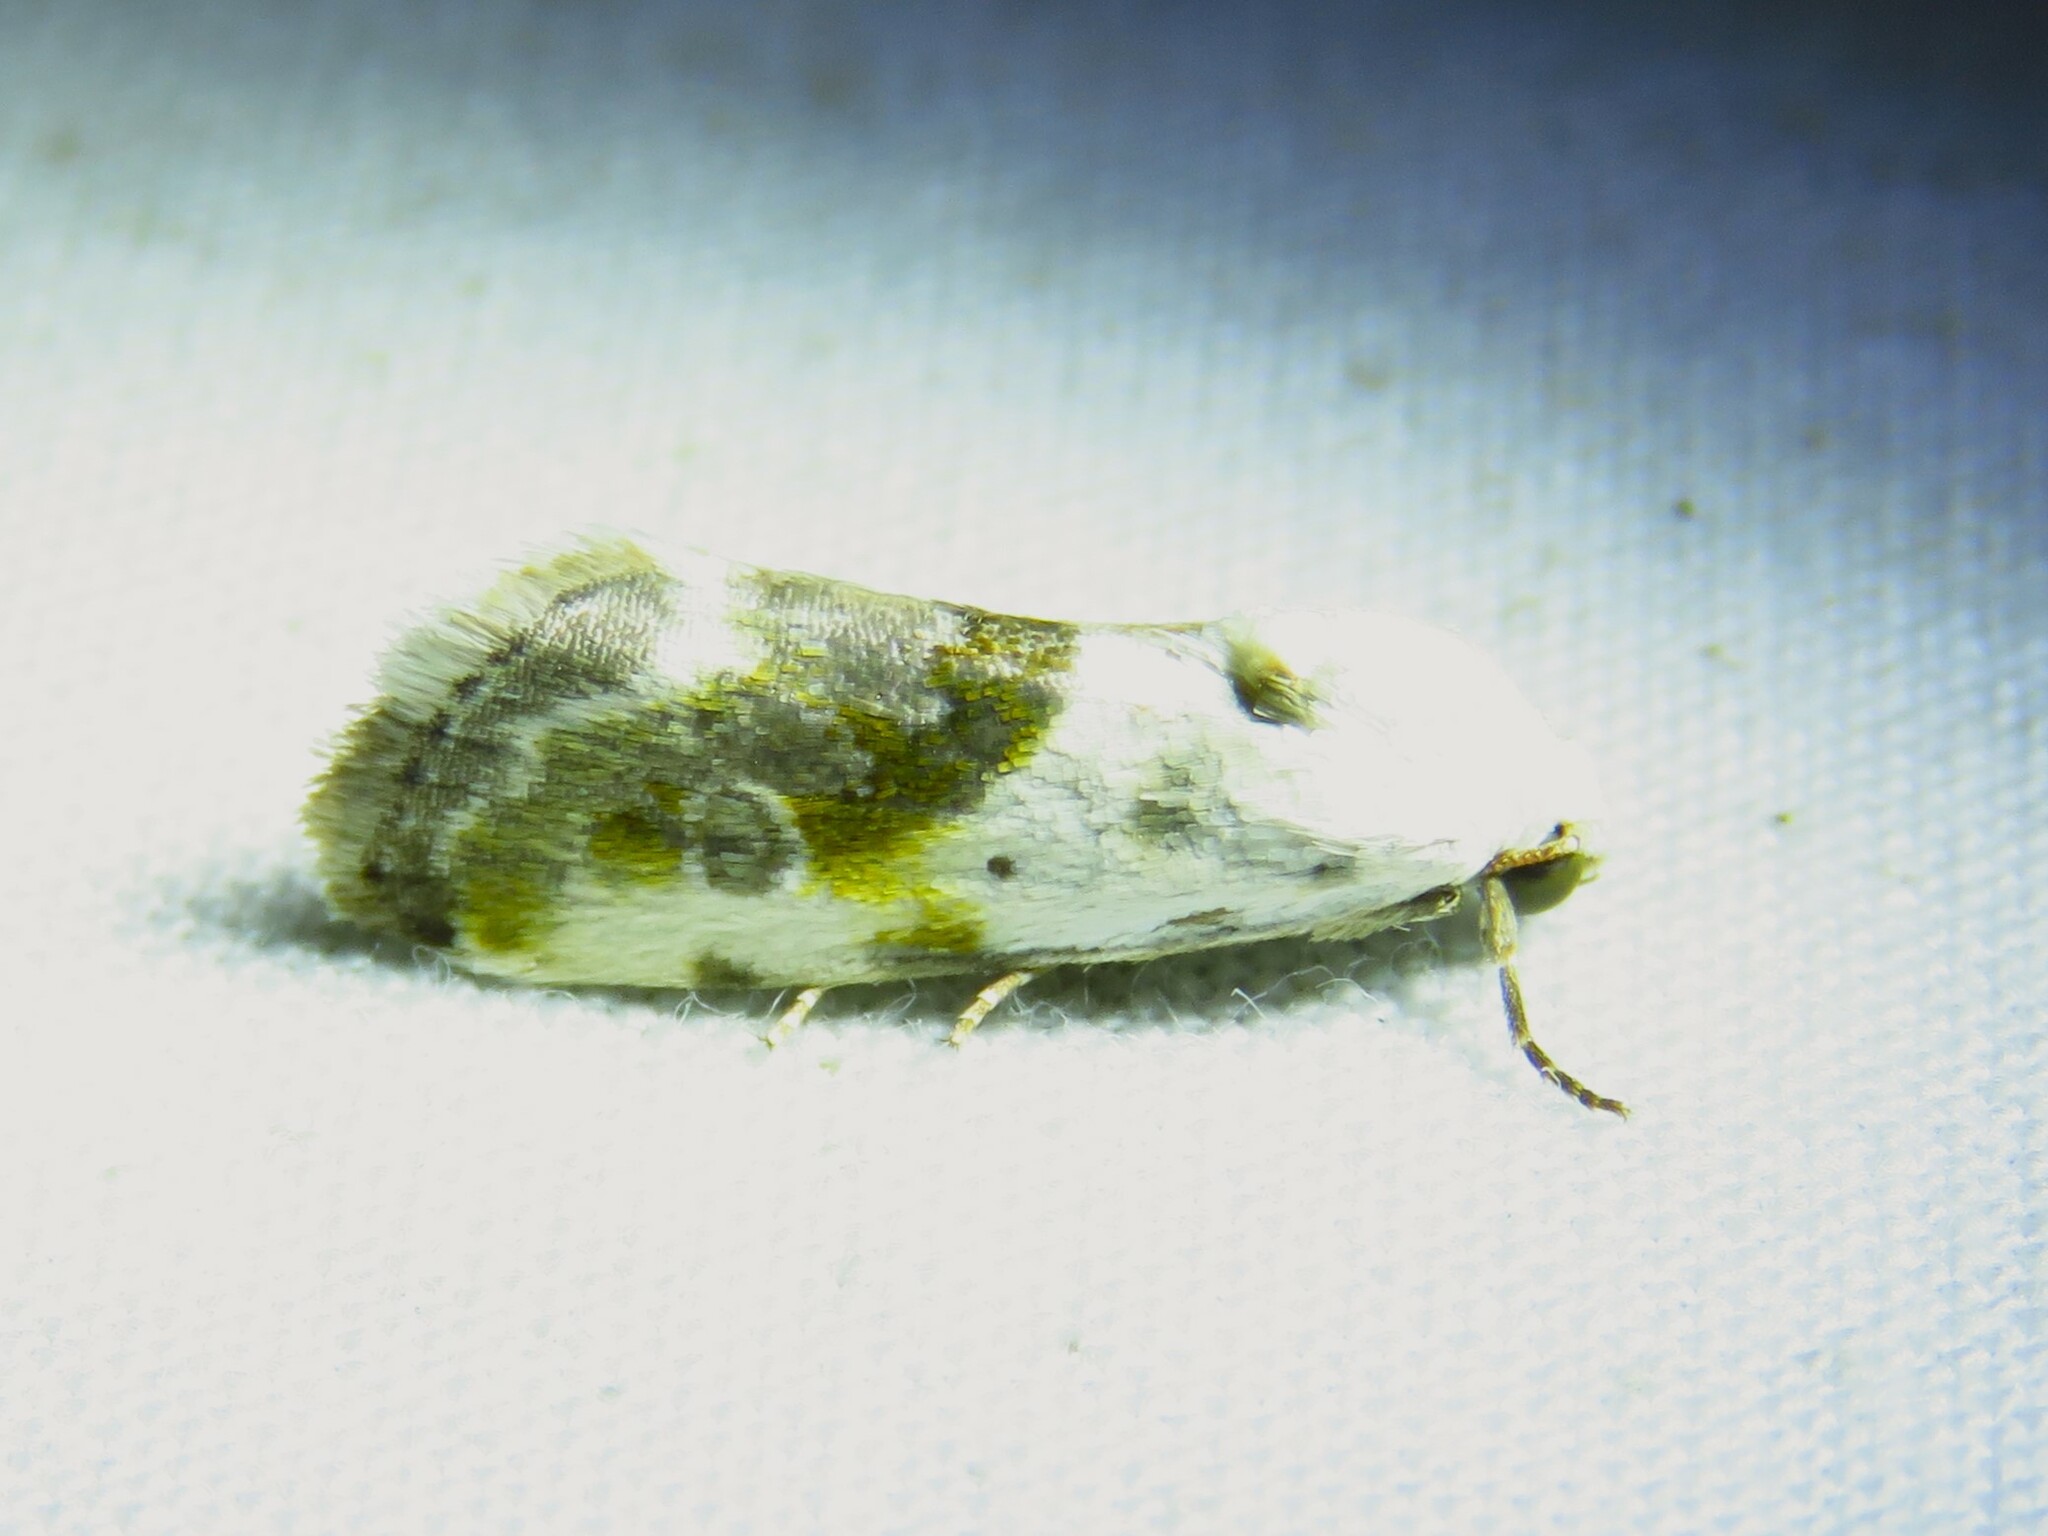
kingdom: Animalia
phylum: Arthropoda
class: Insecta
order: Lepidoptera
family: Noctuidae
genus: Acontia
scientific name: Acontia candefacta
